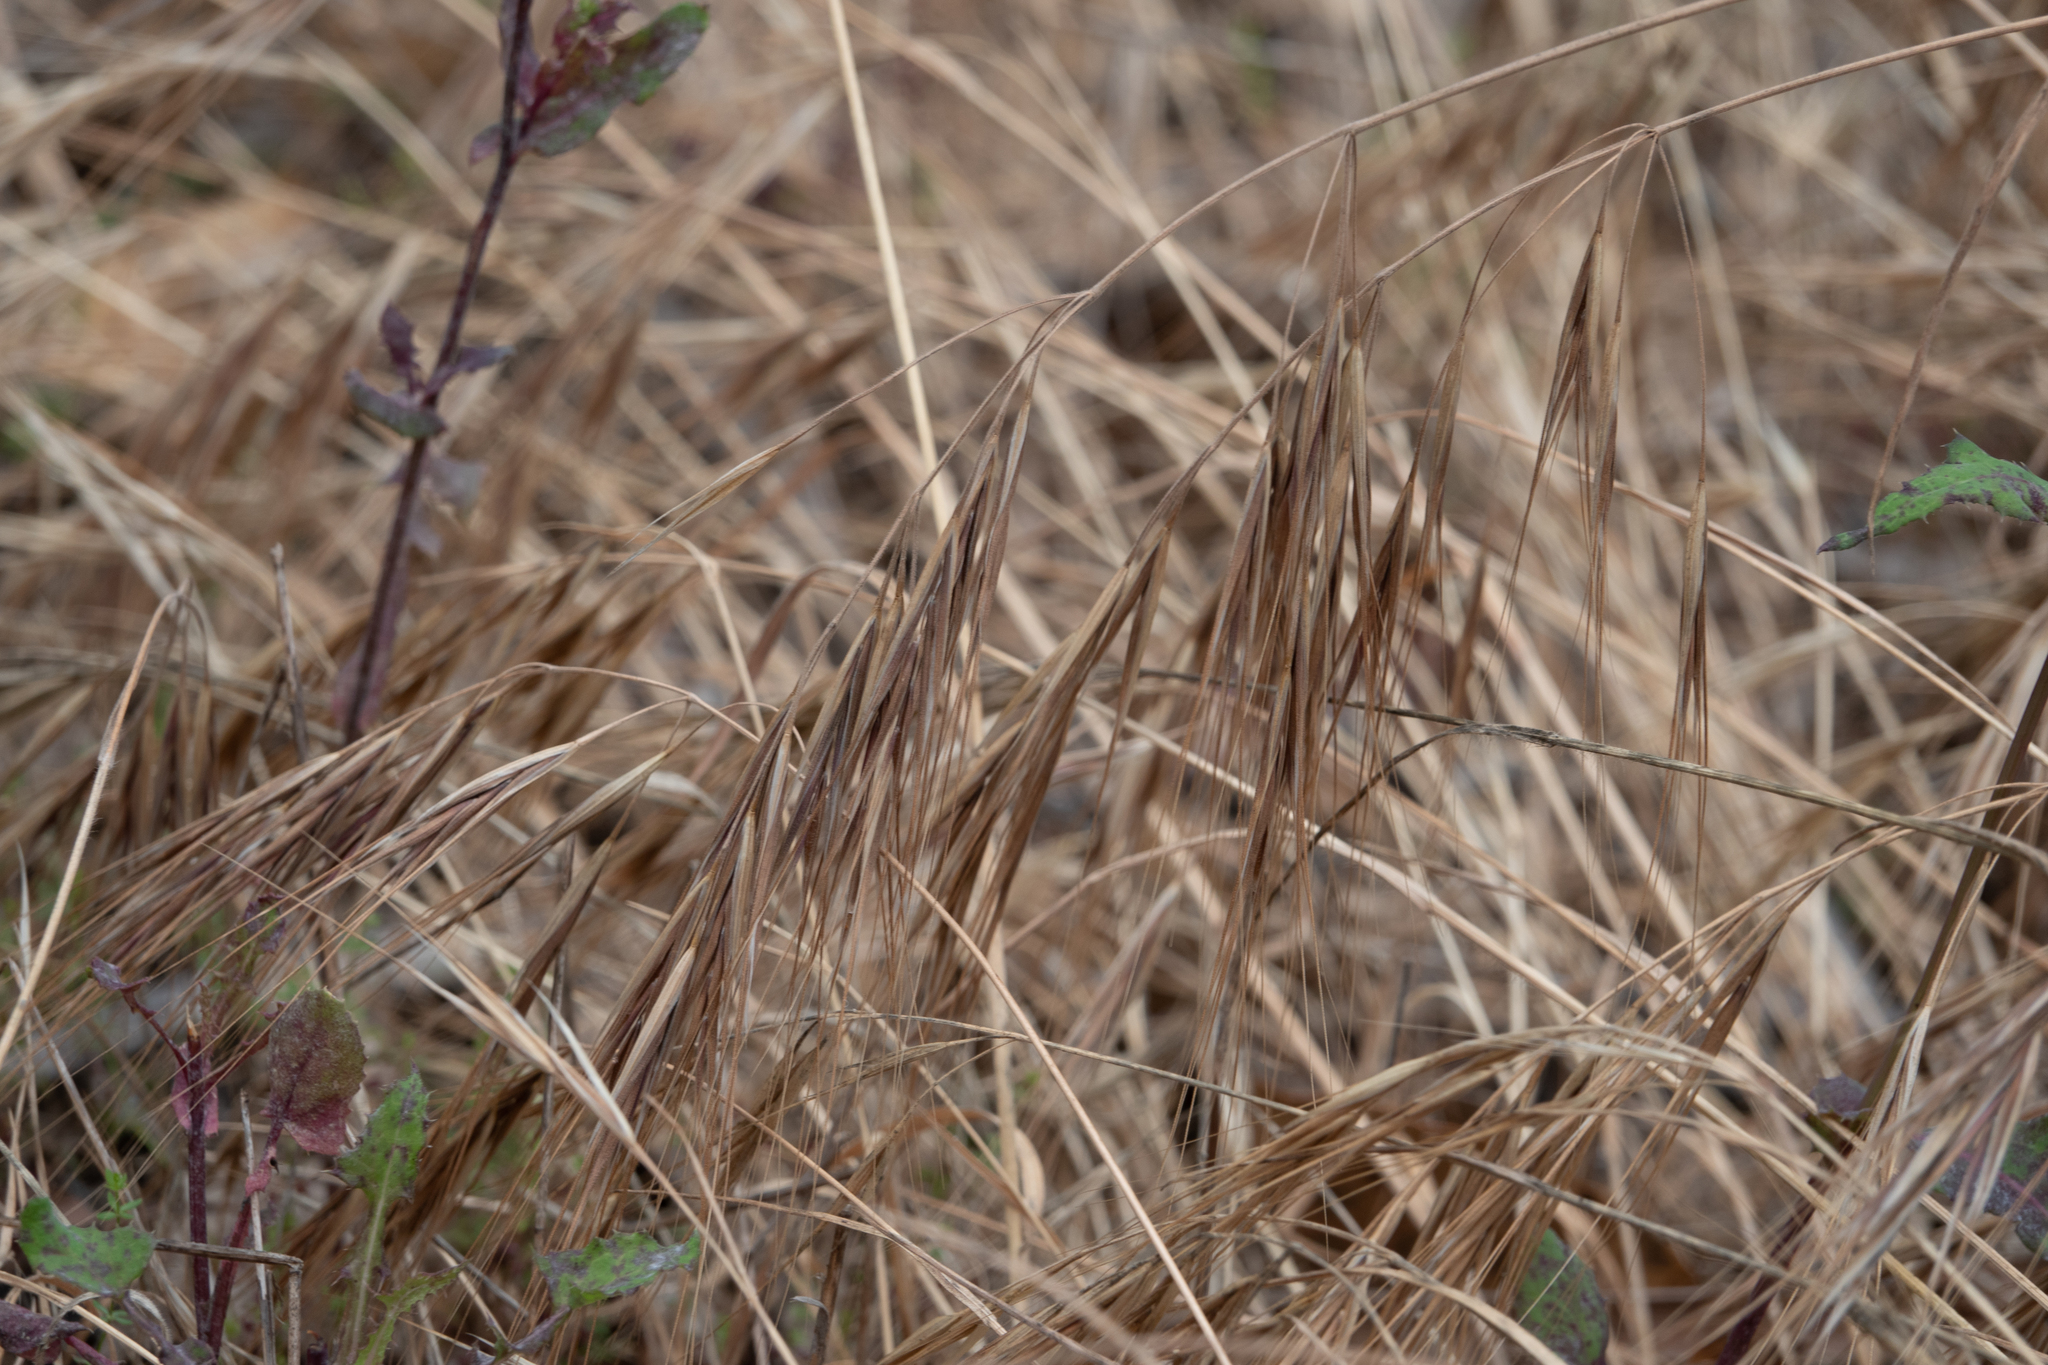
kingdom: Plantae
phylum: Tracheophyta
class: Liliopsida
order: Poales
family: Poaceae
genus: Bromus
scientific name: Bromus diandrus
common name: Ripgut brome
